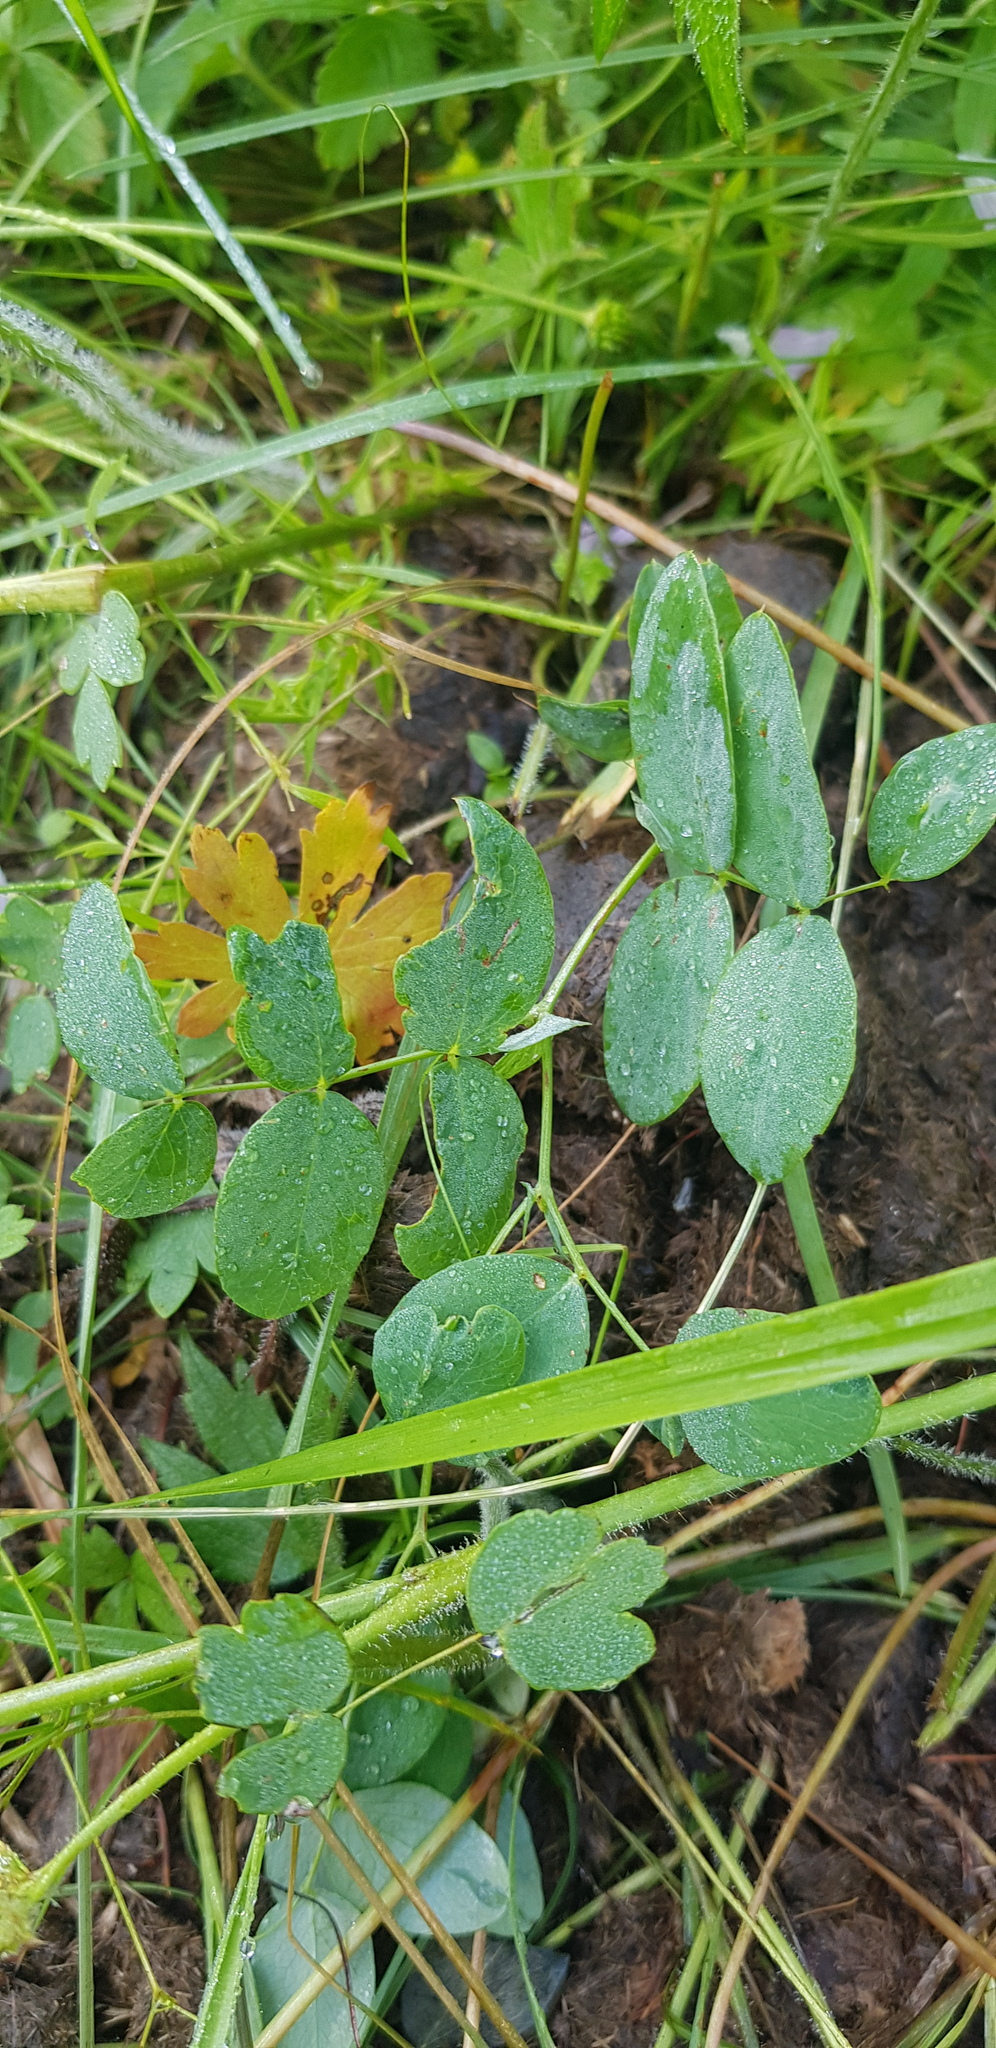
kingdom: Plantae
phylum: Tracheophyta
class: Magnoliopsida
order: Fabales
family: Fabaceae
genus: Lathyrus
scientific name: Lathyrus humilis
